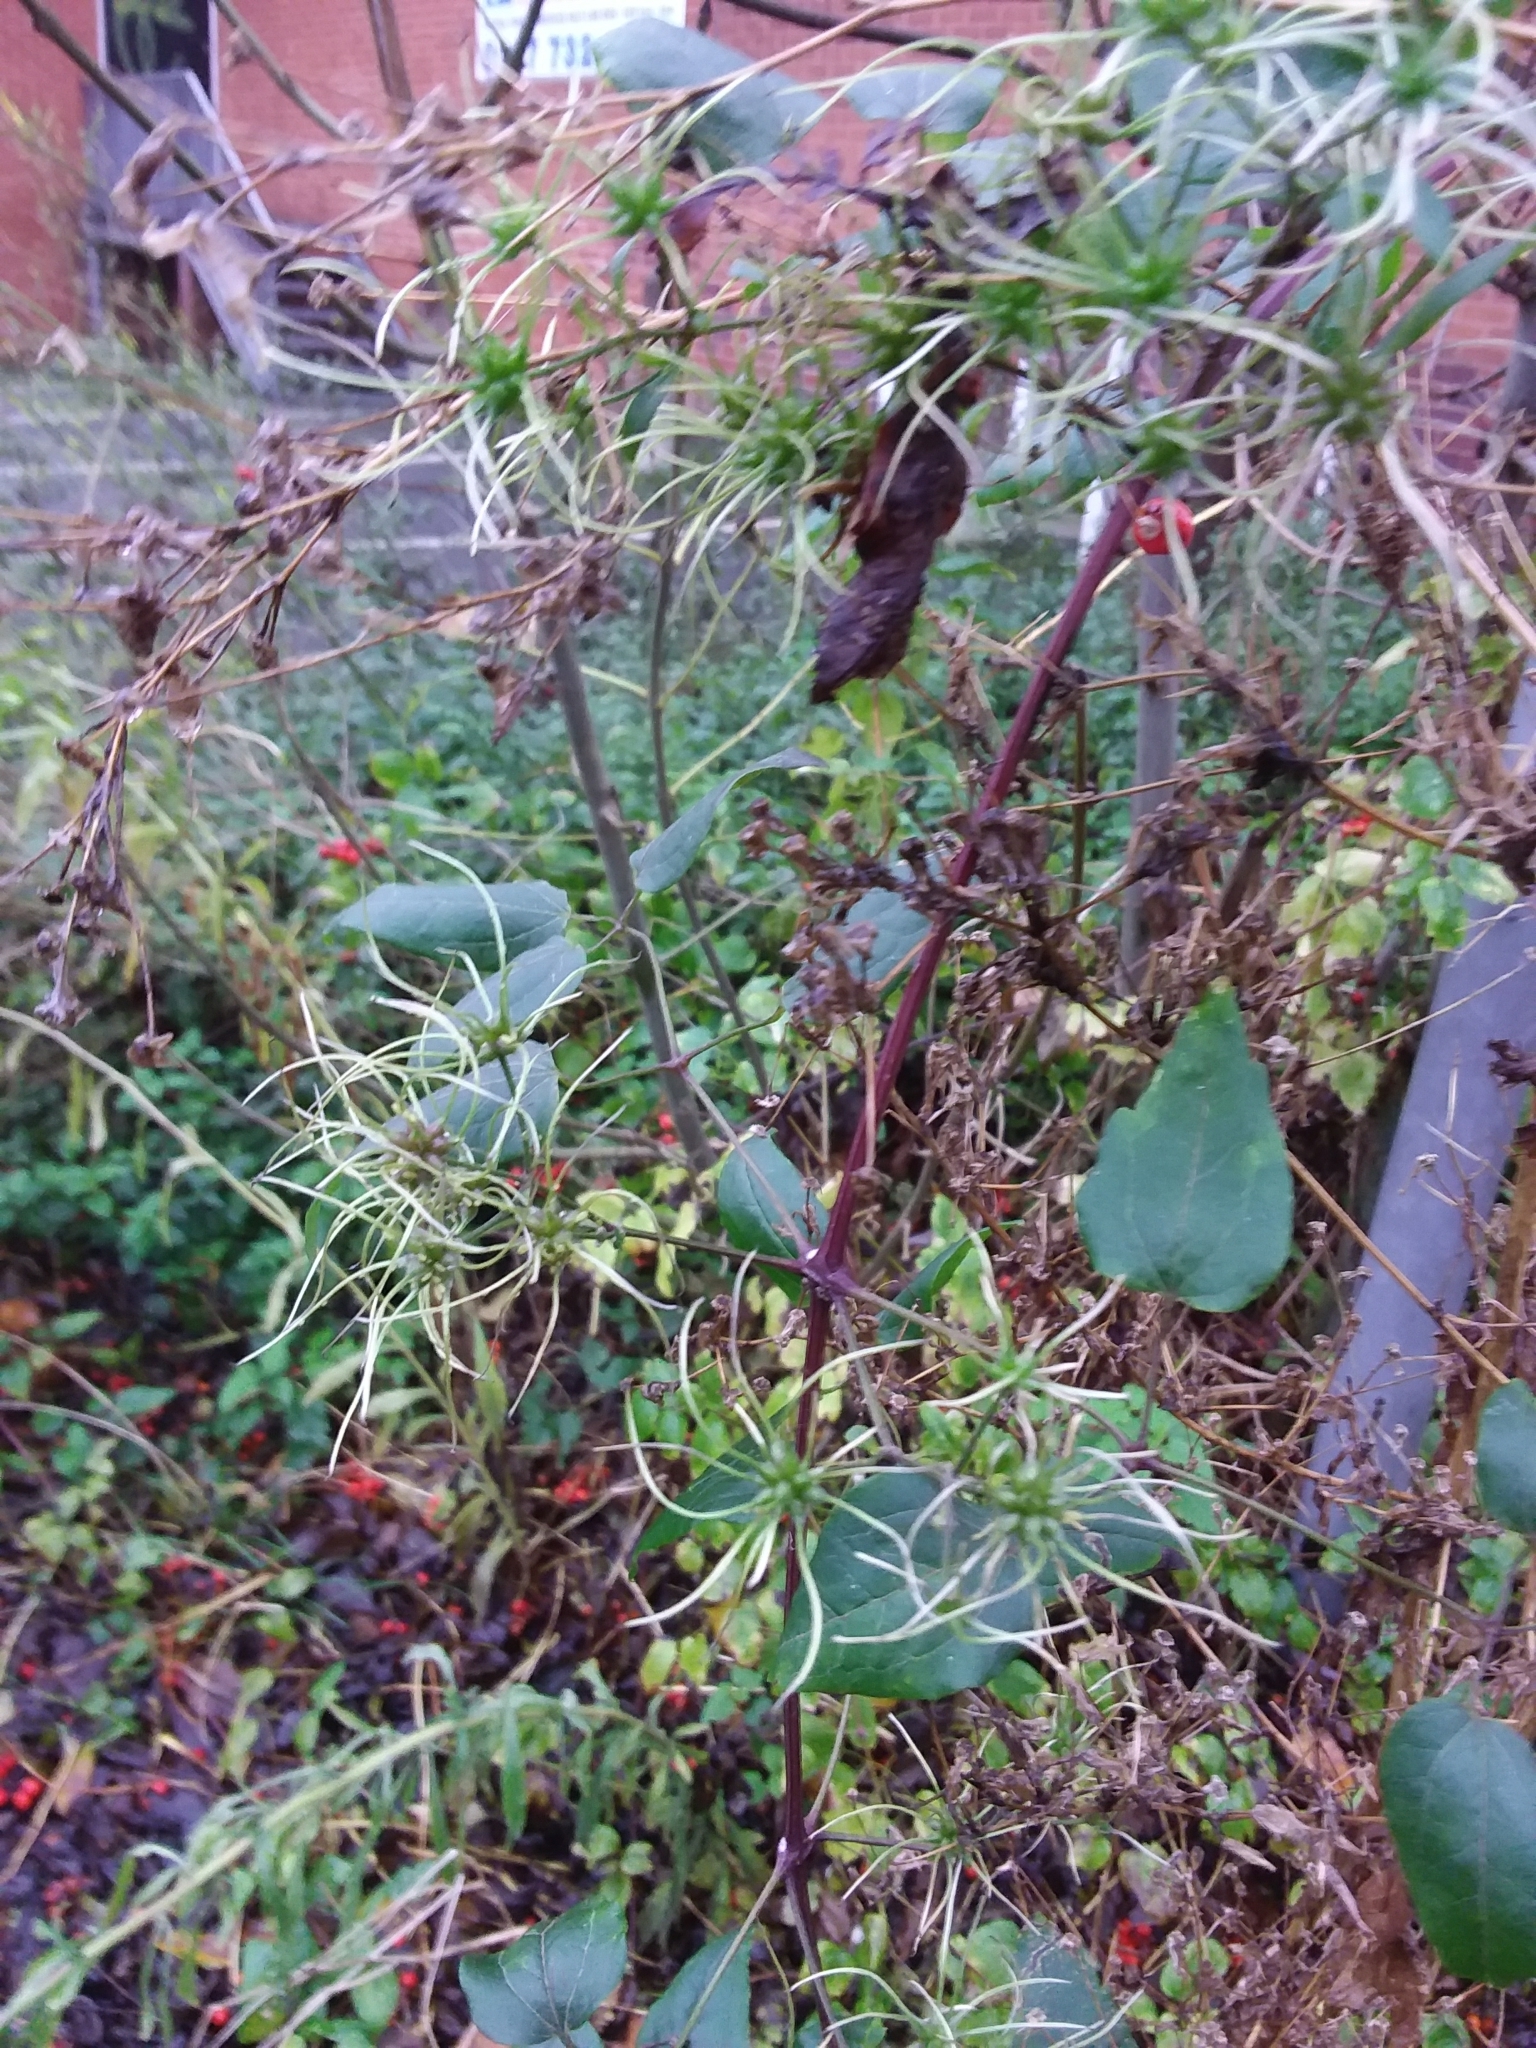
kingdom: Plantae
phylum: Tracheophyta
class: Magnoliopsida
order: Ranunculales
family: Ranunculaceae
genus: Clematis
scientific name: Clematis vitalba
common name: Evergreen clematis
